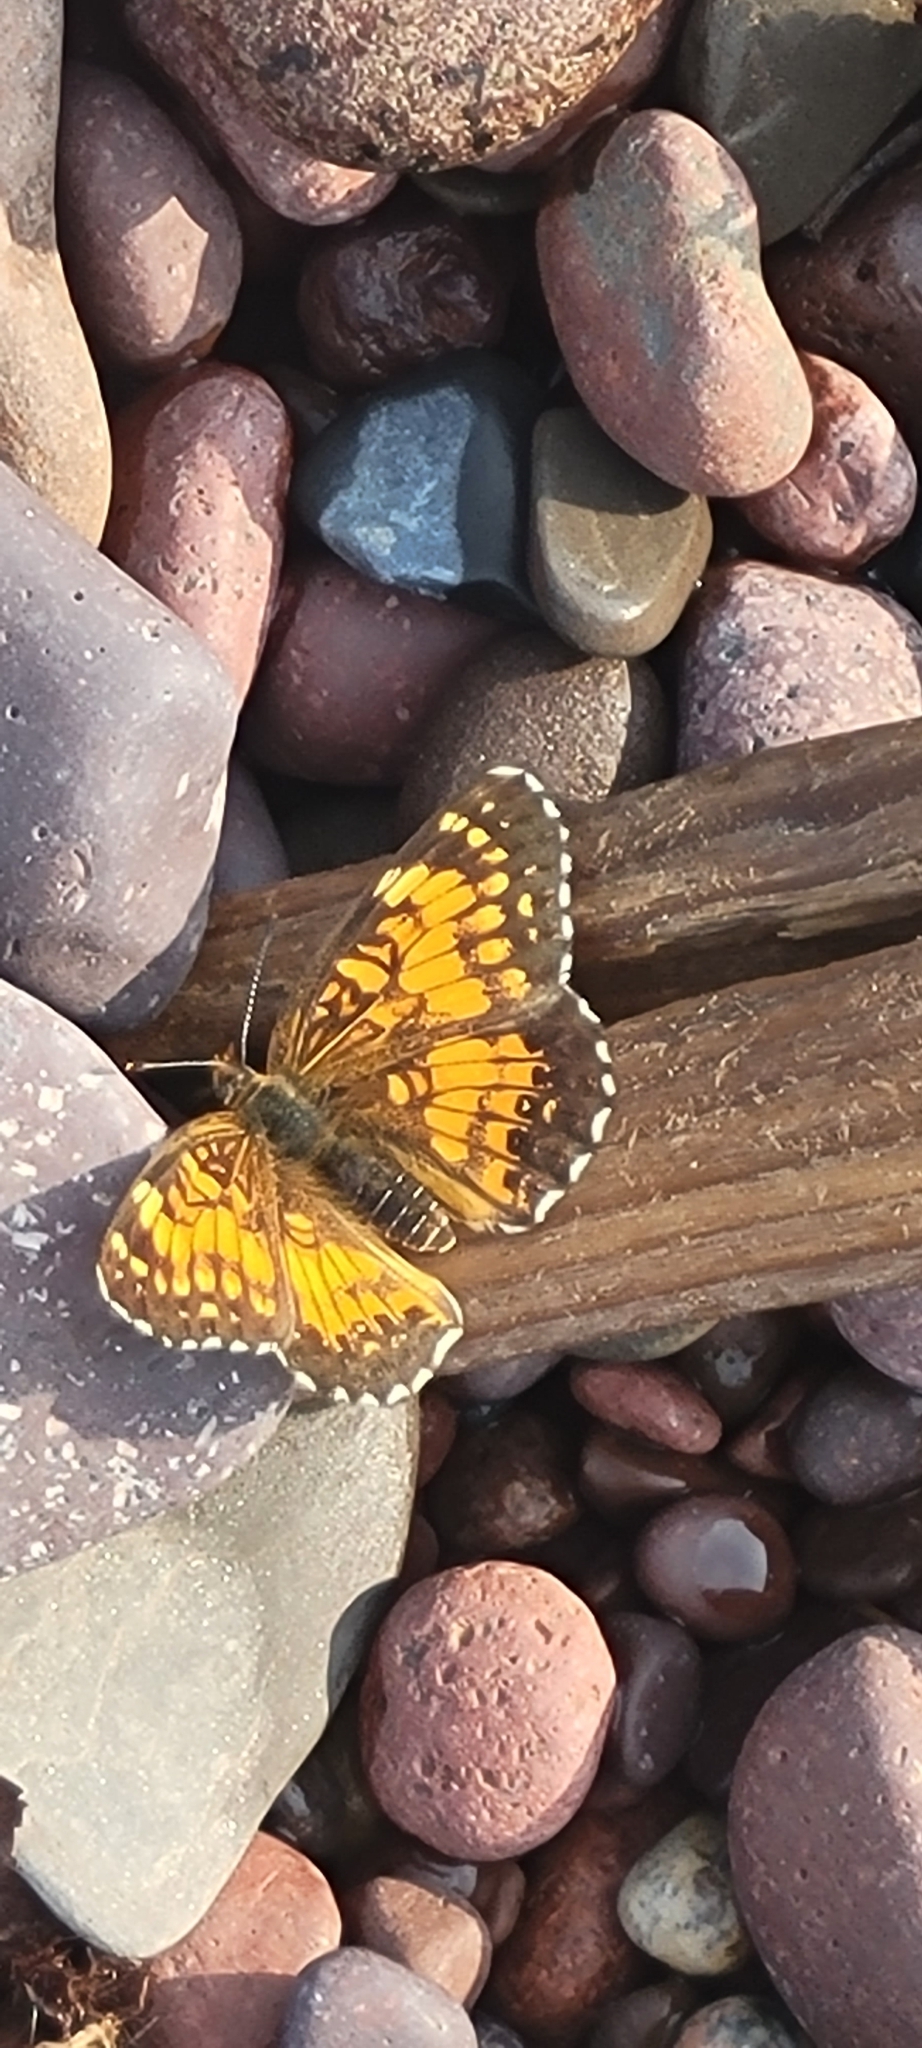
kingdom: Animalia
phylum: Arthropoda
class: Insecta
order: Lepidoptera
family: Nymphalidae
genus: Chlosyne
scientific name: Chlosyne harrisii
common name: Harris's checkerspot
